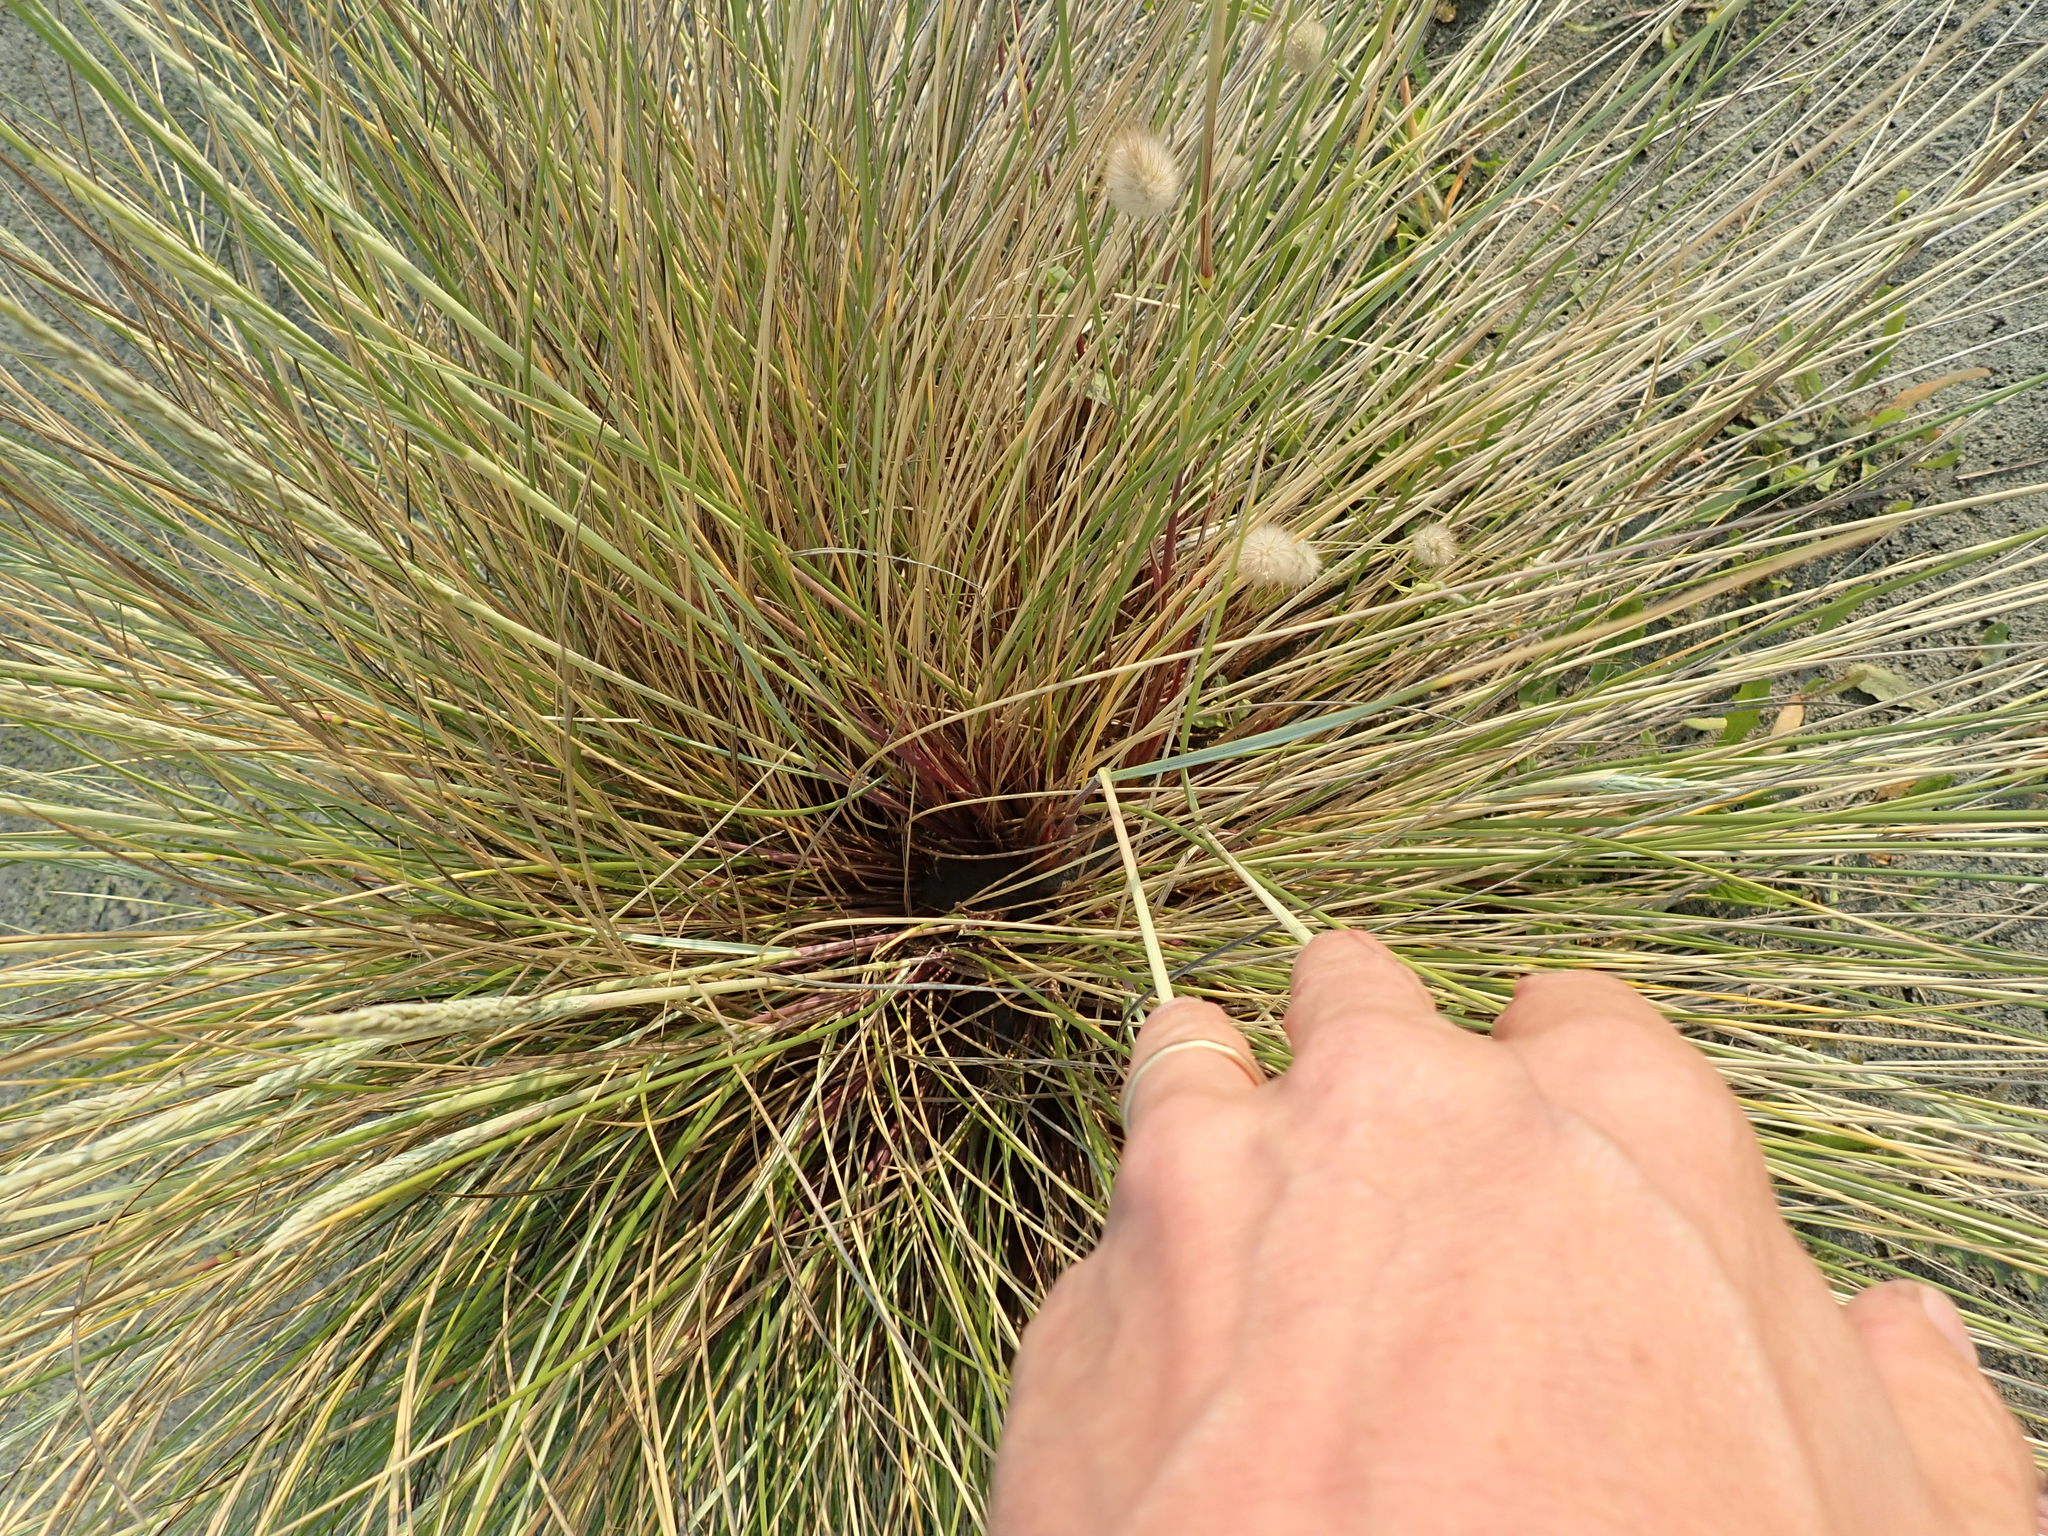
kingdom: Plantae
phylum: Tracheophyta
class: Liliopsida
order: Poales
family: Poaceae
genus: Calamagrostis
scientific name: Calamagrostis arenaria
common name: European beachgrass
